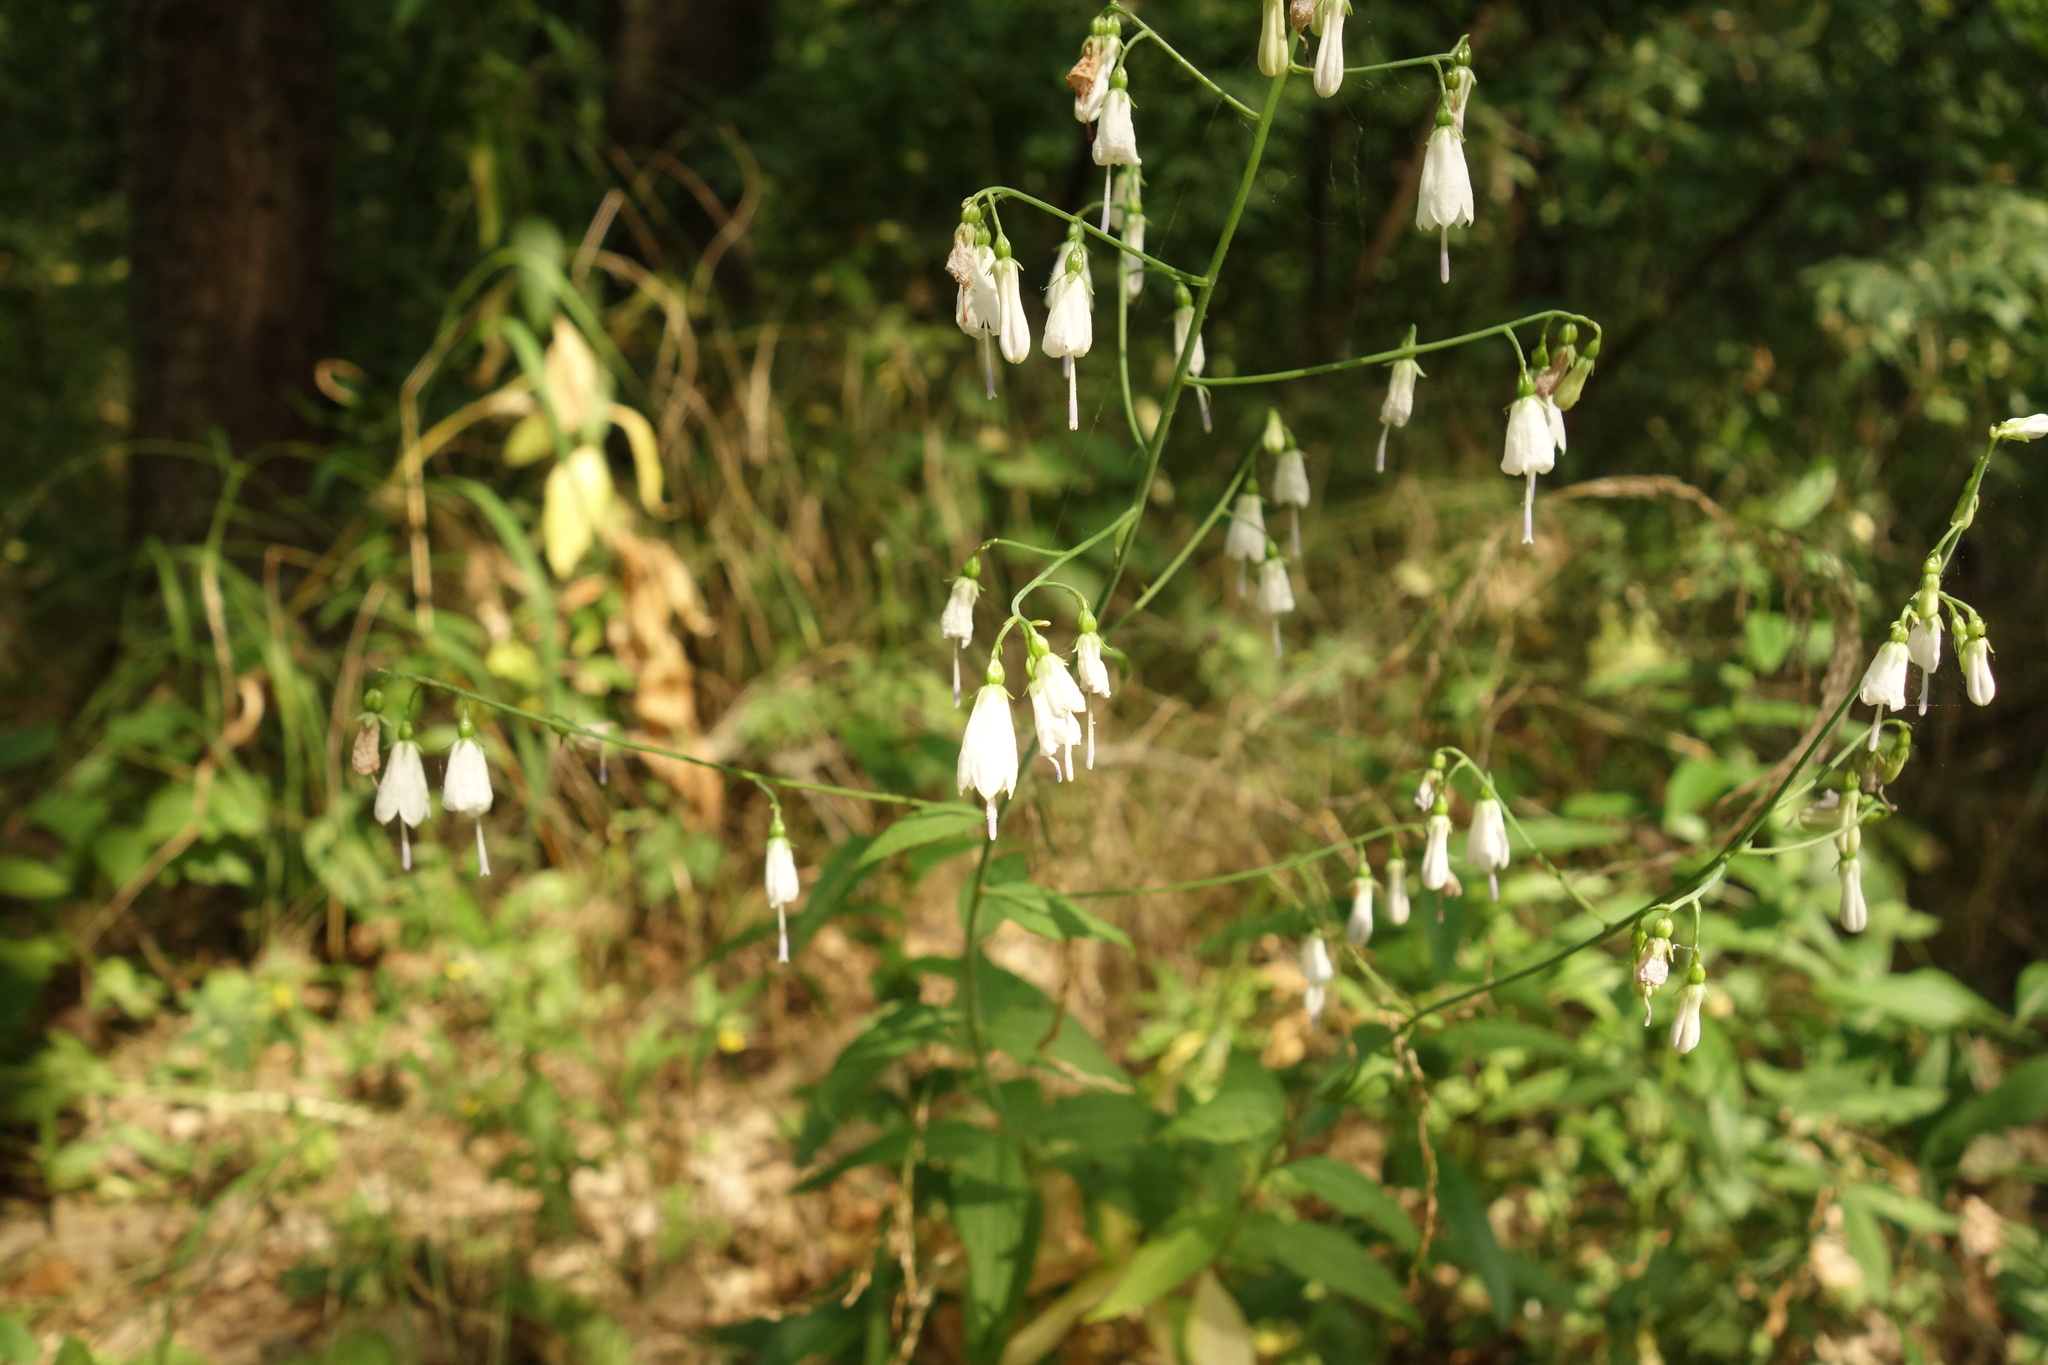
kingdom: Plantae
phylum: Tracheophyta
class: Magnoliopsida
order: Asterales
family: Campanulaceae
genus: Adenophora
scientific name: Adenophora liliifolia
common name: Lilyleaf ladybells
